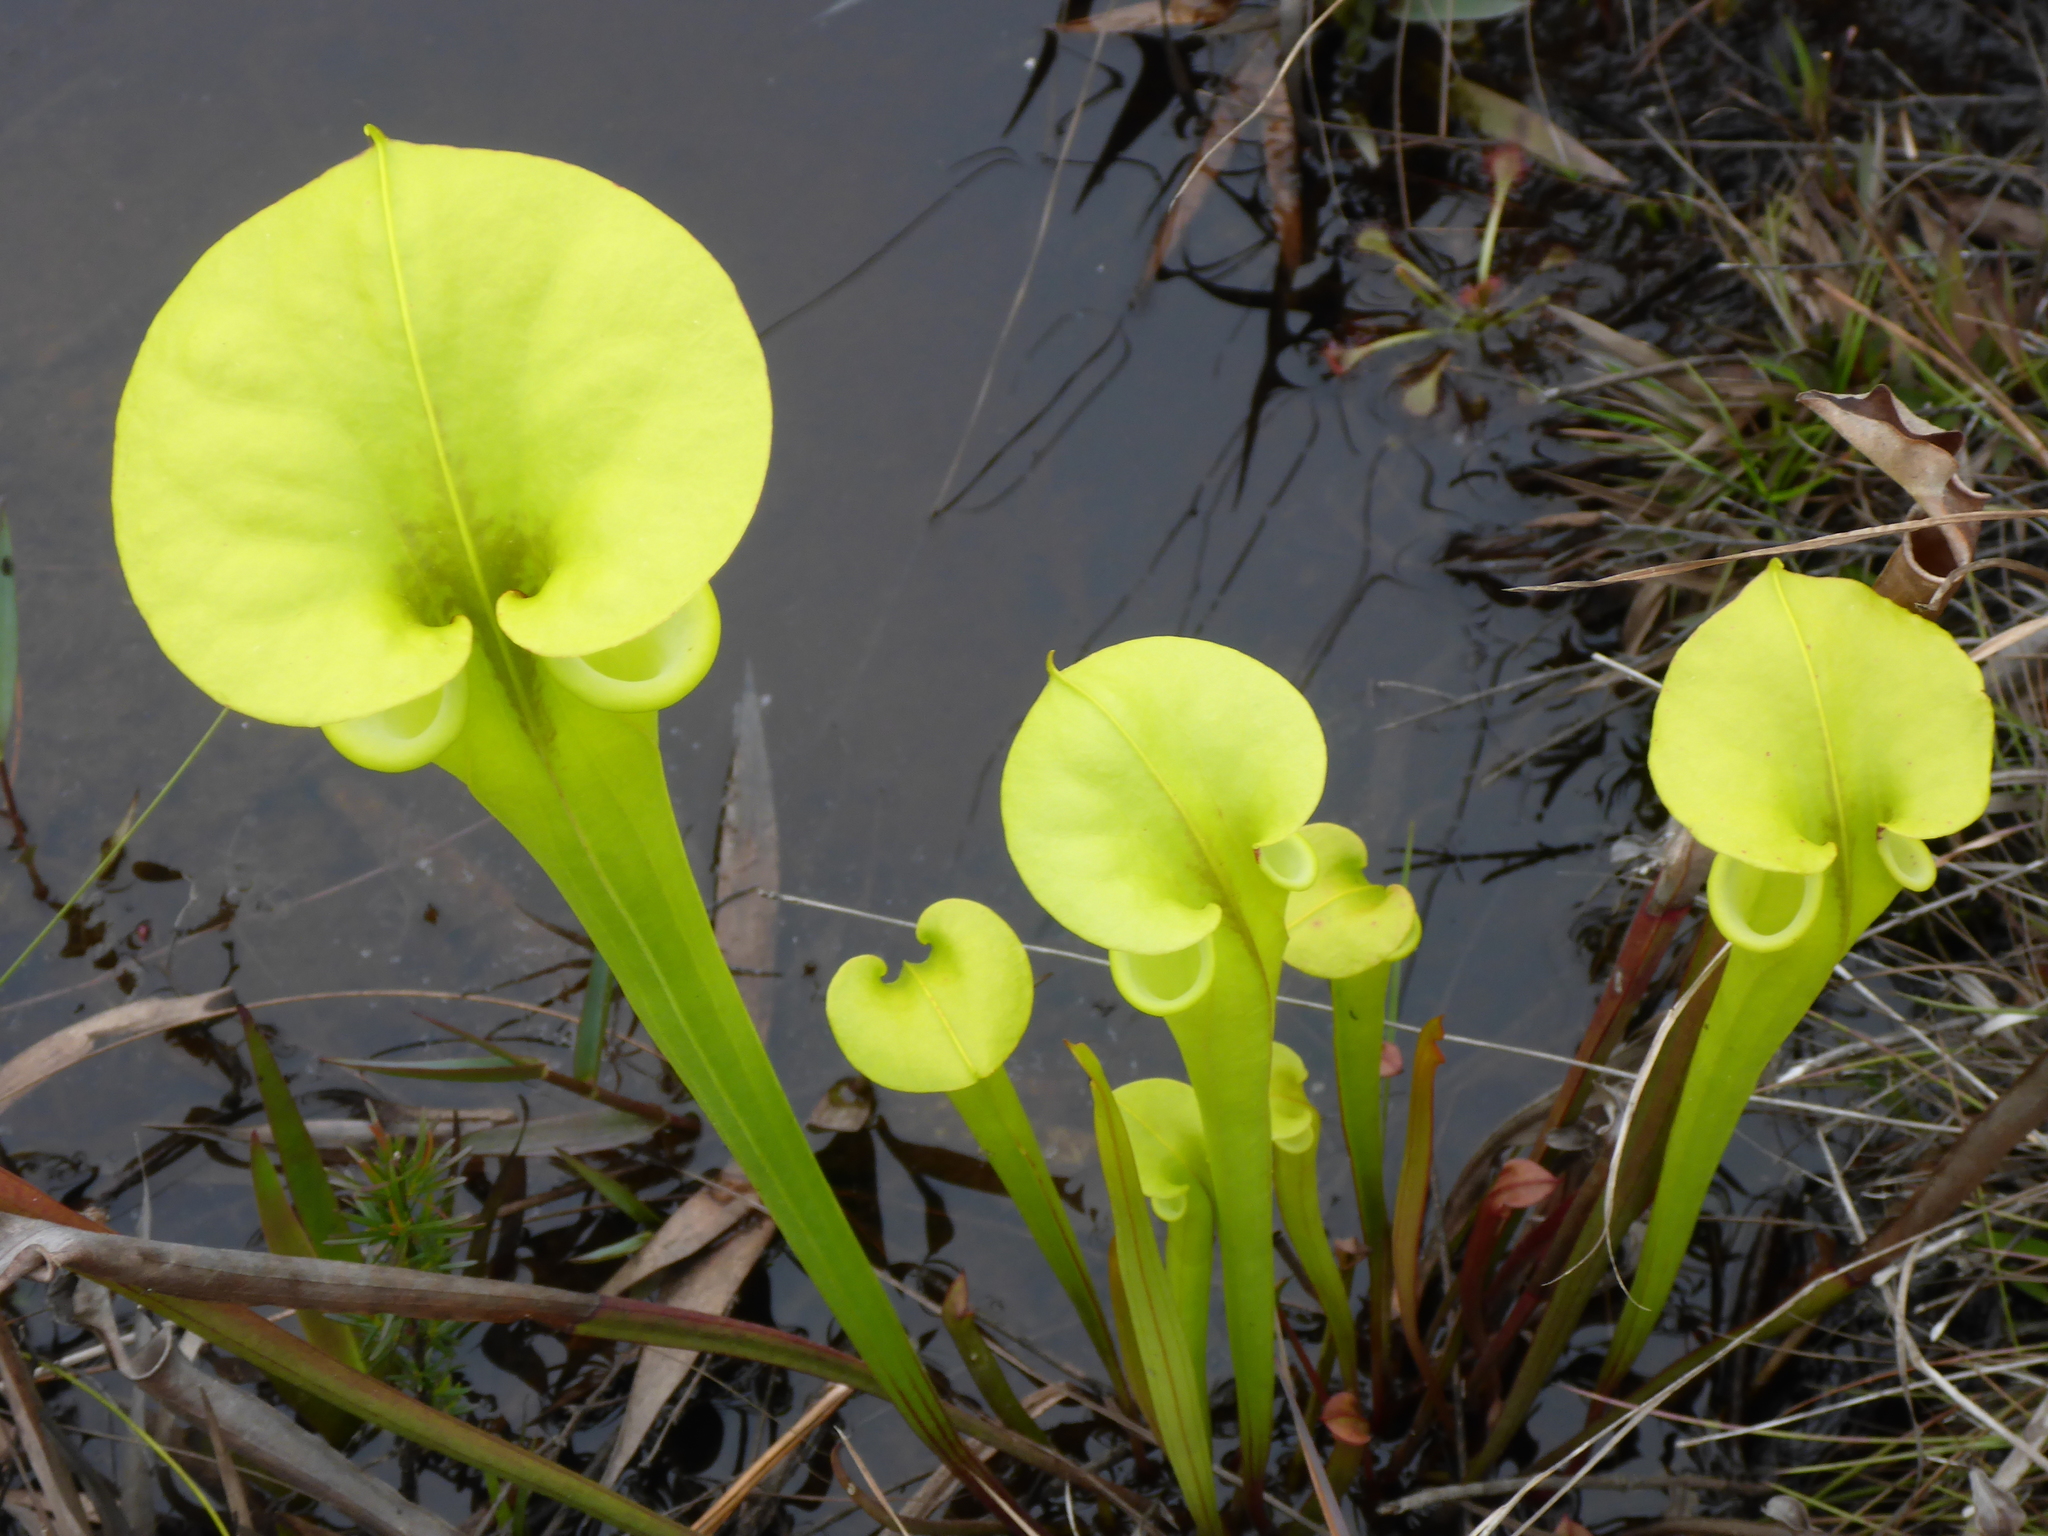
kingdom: Plantae
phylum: Tracheophyta
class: Magnoliopsida
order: Ericales
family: Sarraceniaceae
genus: Sarracenia
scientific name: Sarracenia flava
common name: Trumpets
